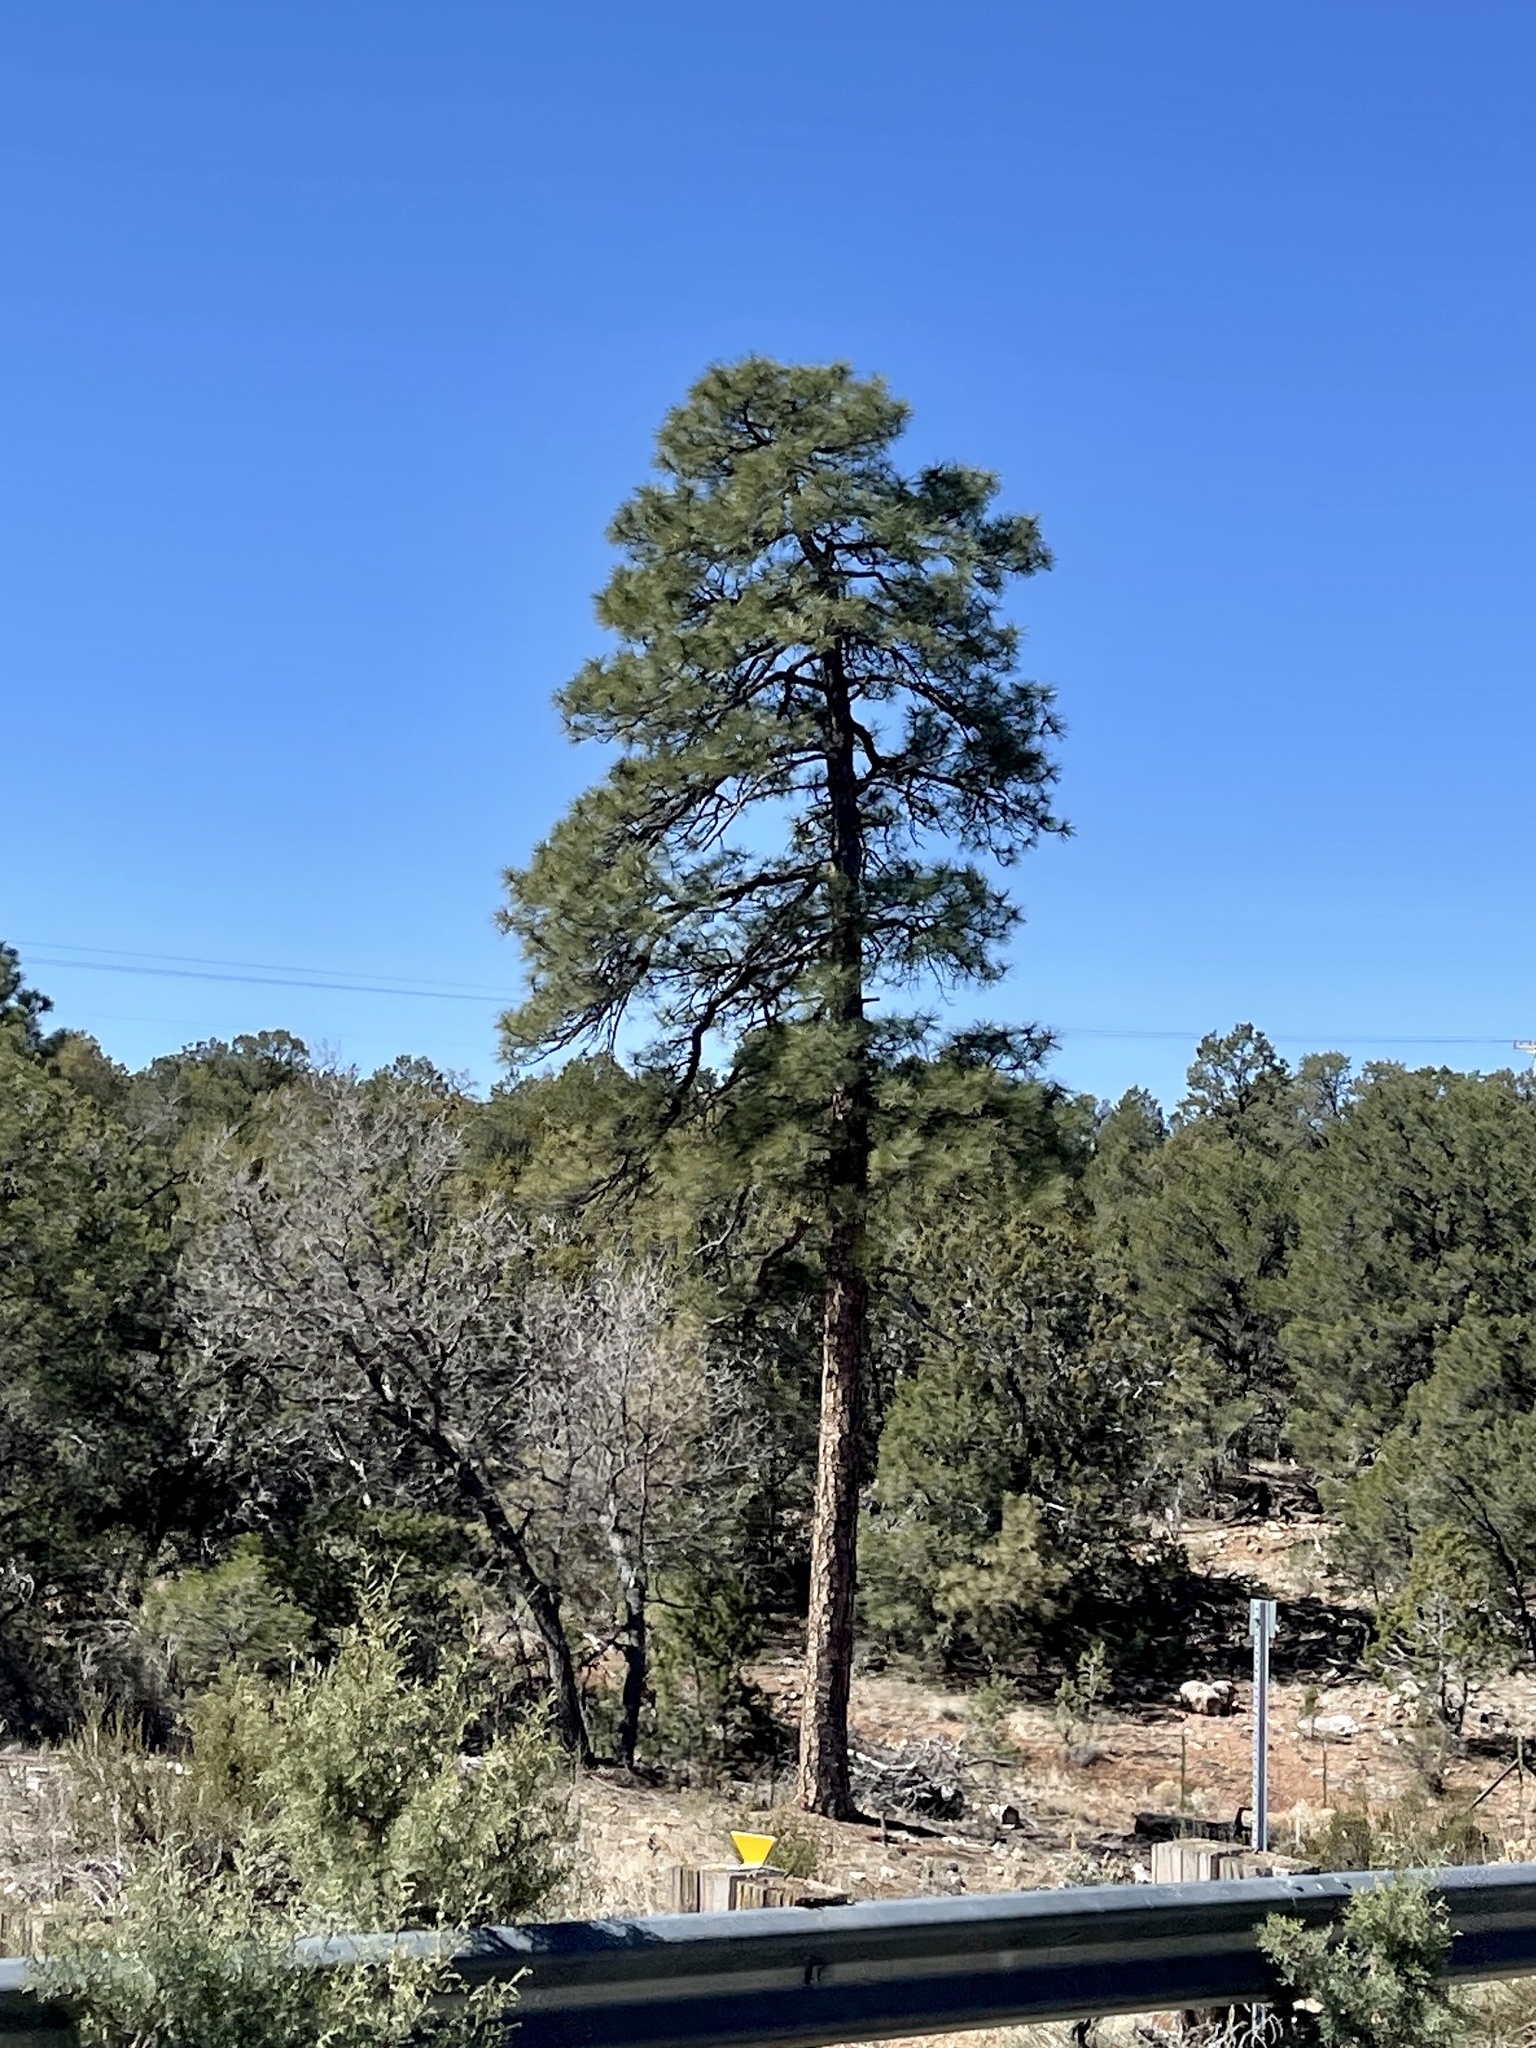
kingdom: Plantae
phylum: Tracheophyta
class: Pinopsida
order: Pinales
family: Pinaceae
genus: Pinus
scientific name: Pinus ponderosa
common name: Western yellow-pine
